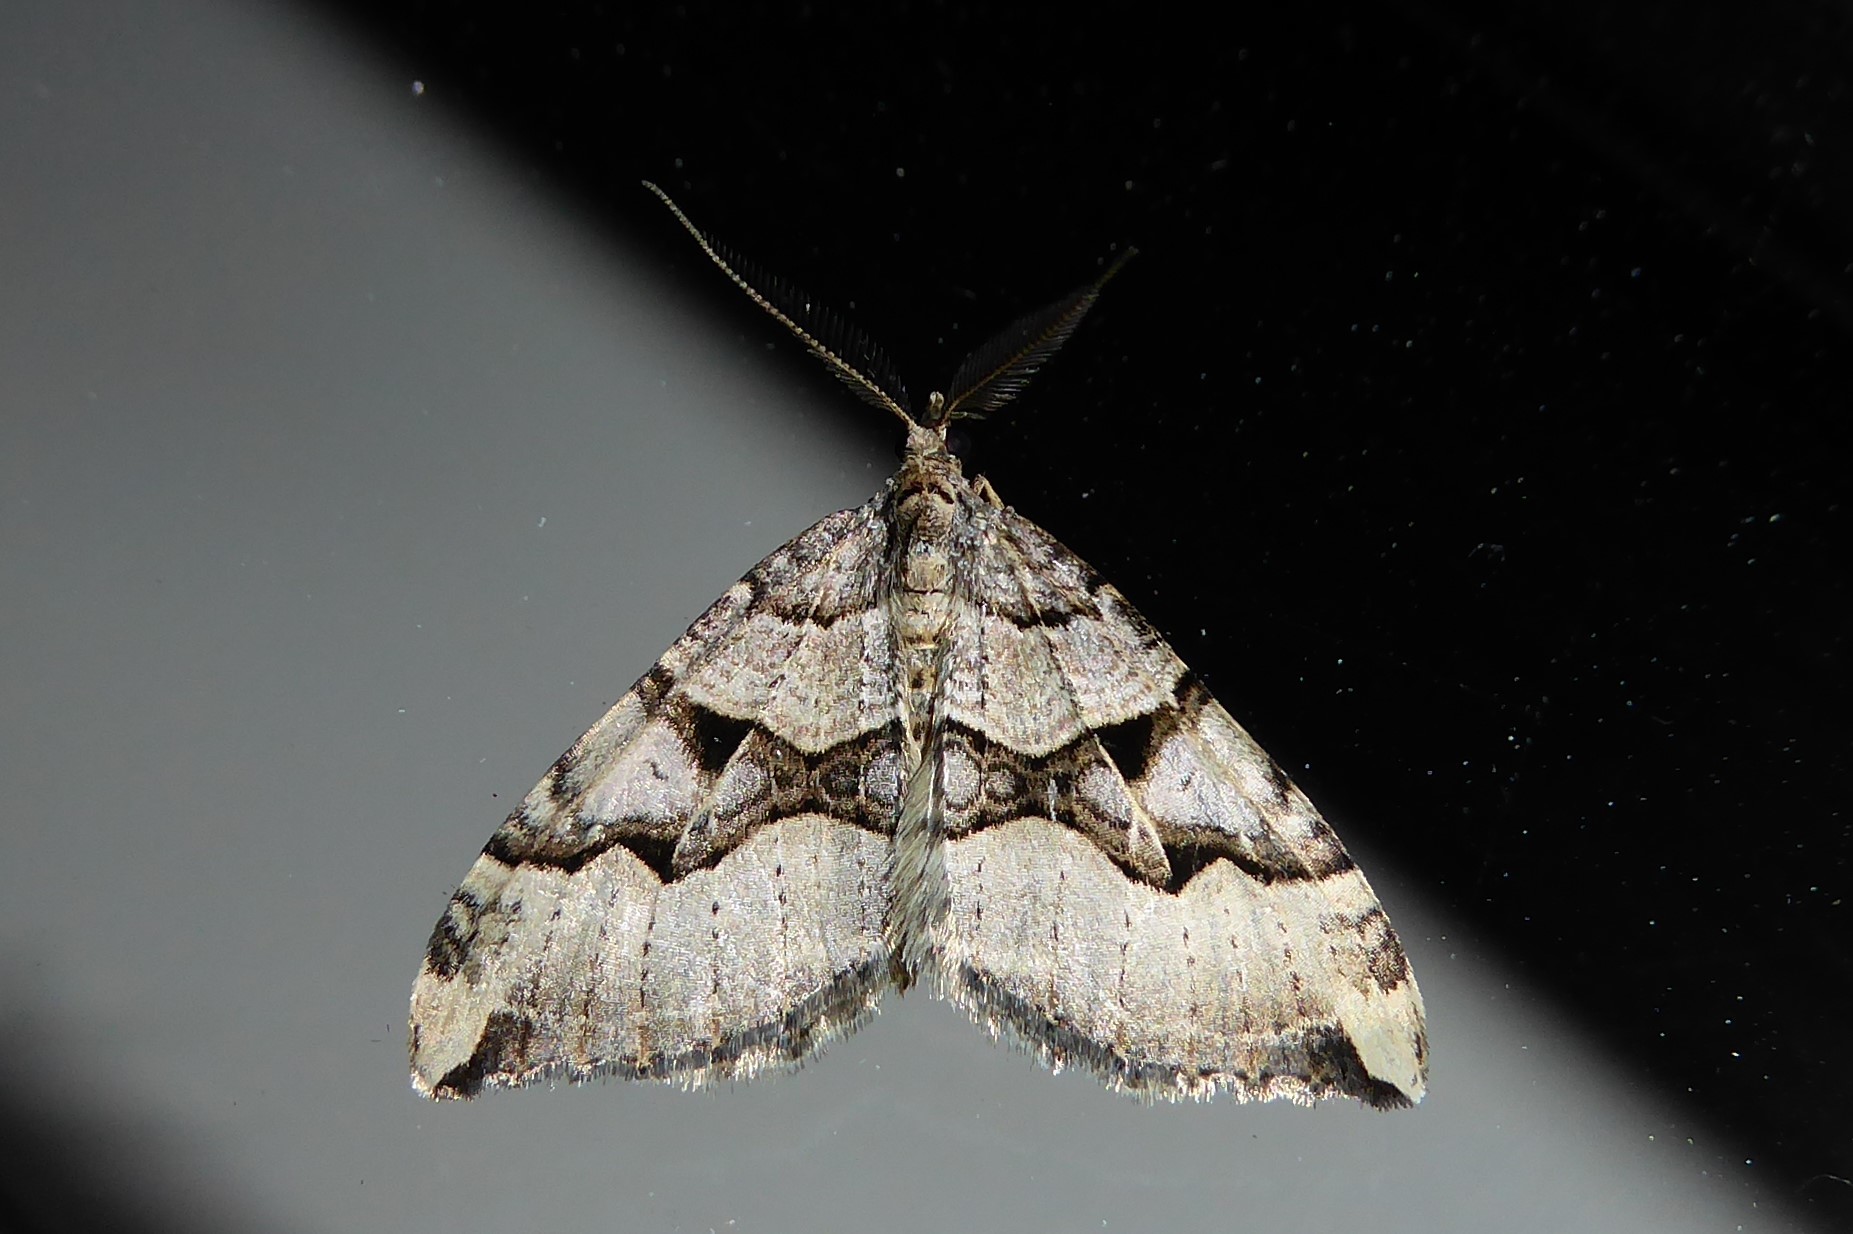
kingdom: Animalia
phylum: Arthropoda
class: Insecta
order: Lepidoptera
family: Geometridae
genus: Xanthorhoe
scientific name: Xanthorhoe semifissata
